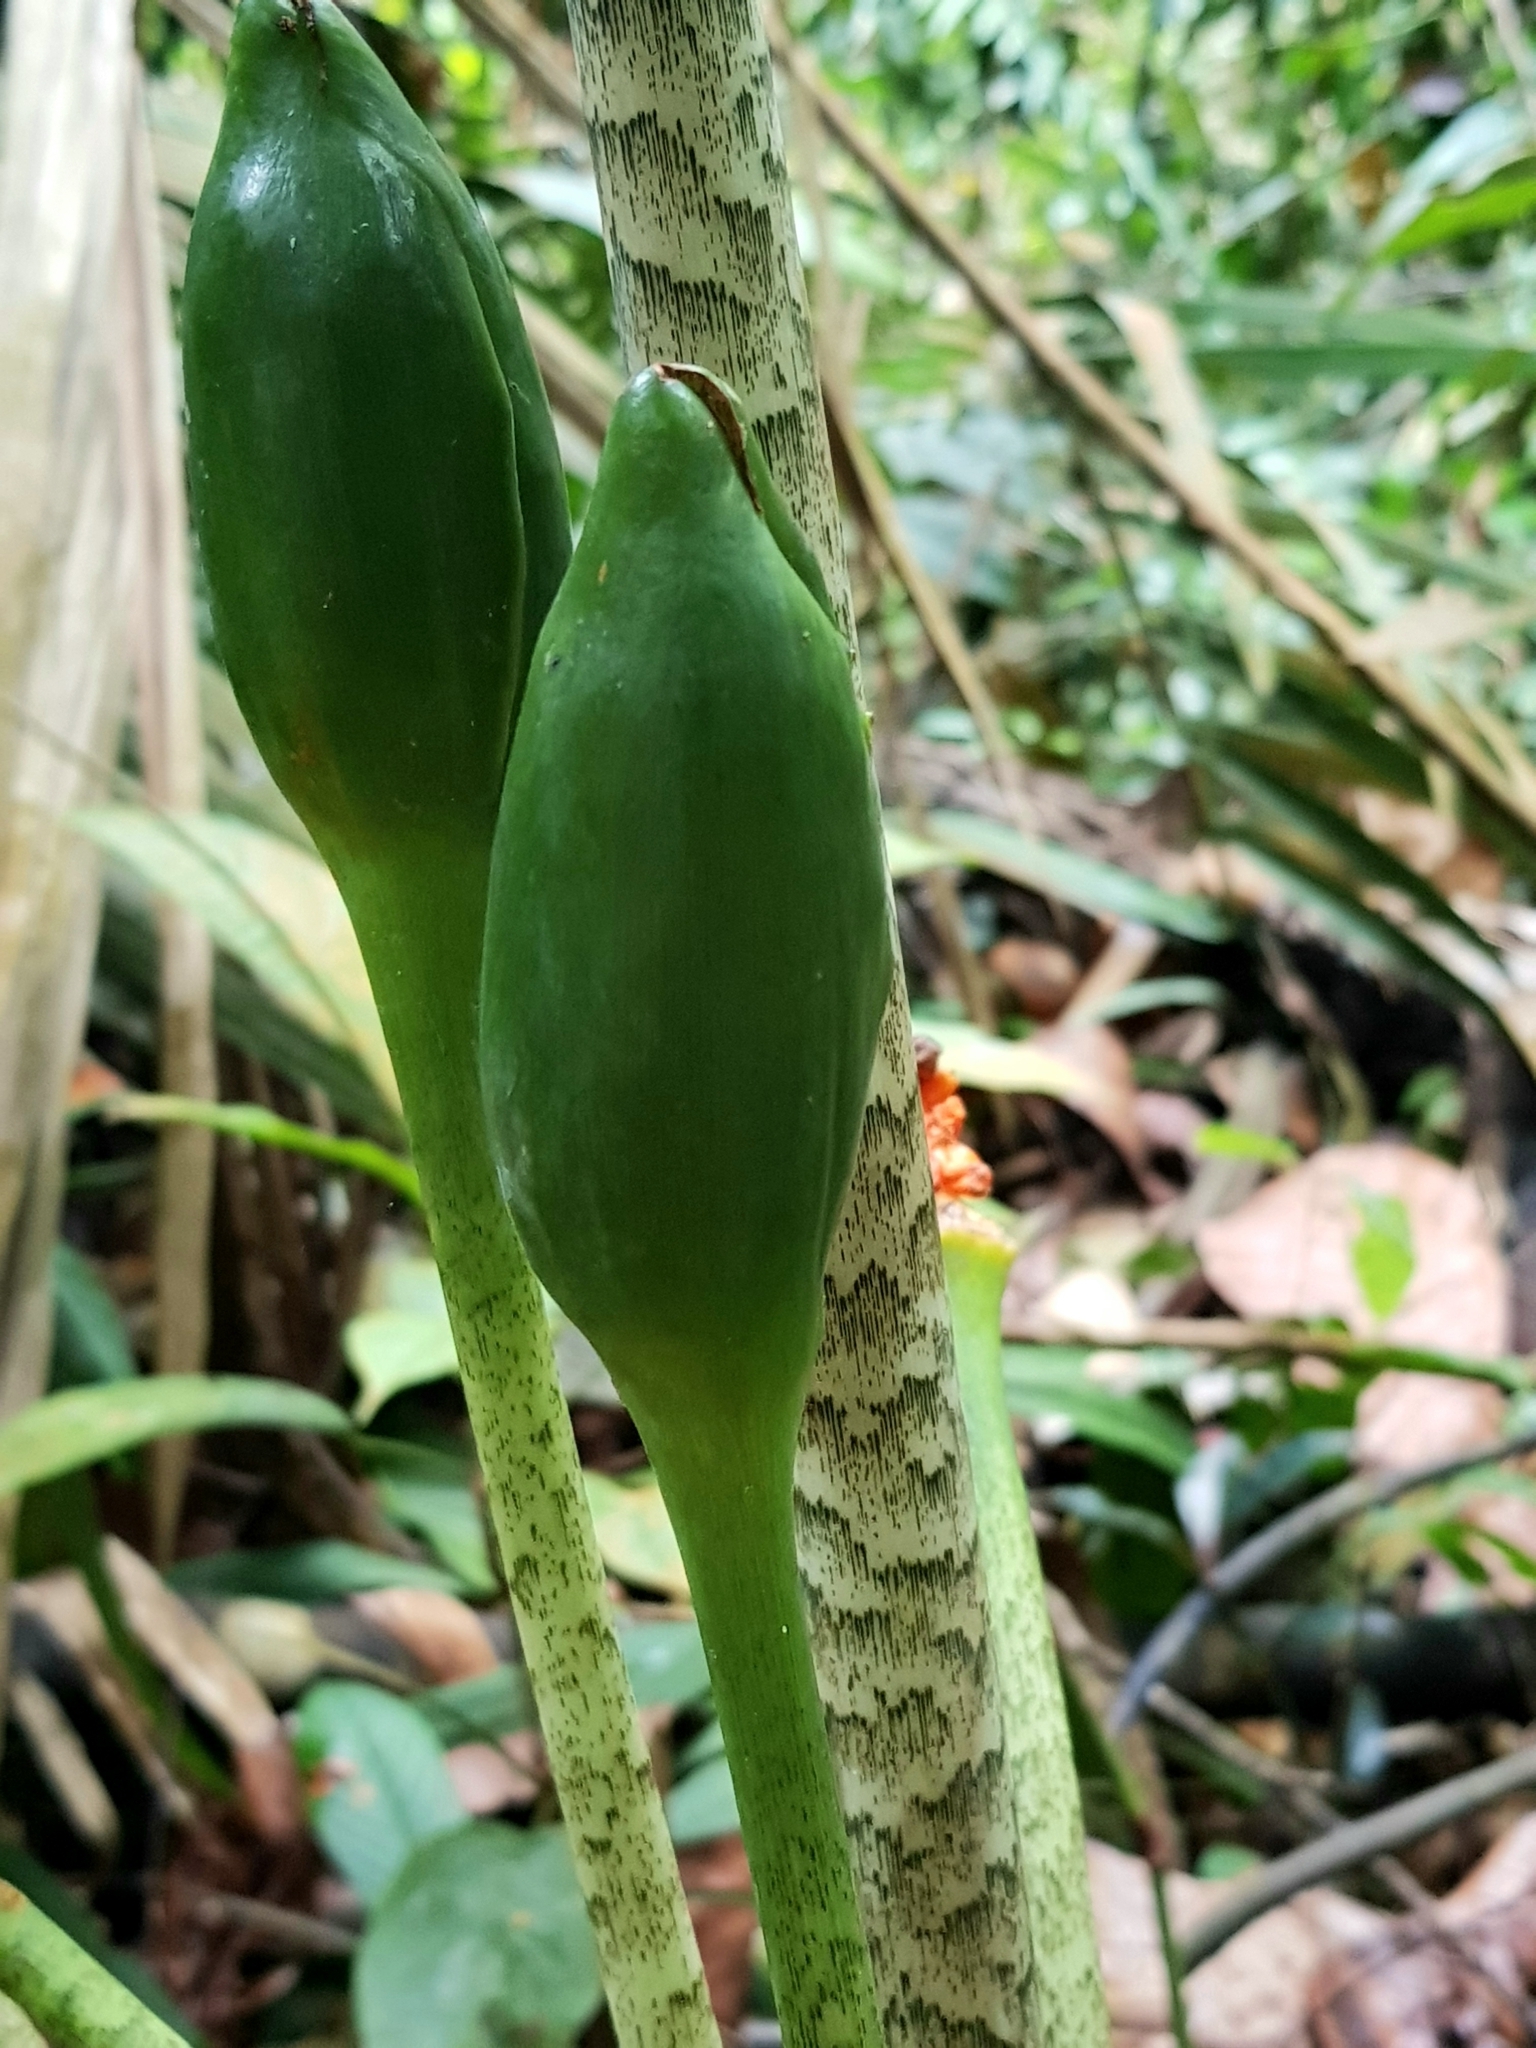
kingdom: Plantae
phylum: Tracheophyta
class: Liliopsida
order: Alismatales
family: Araceae
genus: Alocasia
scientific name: Alocasia longiloba
